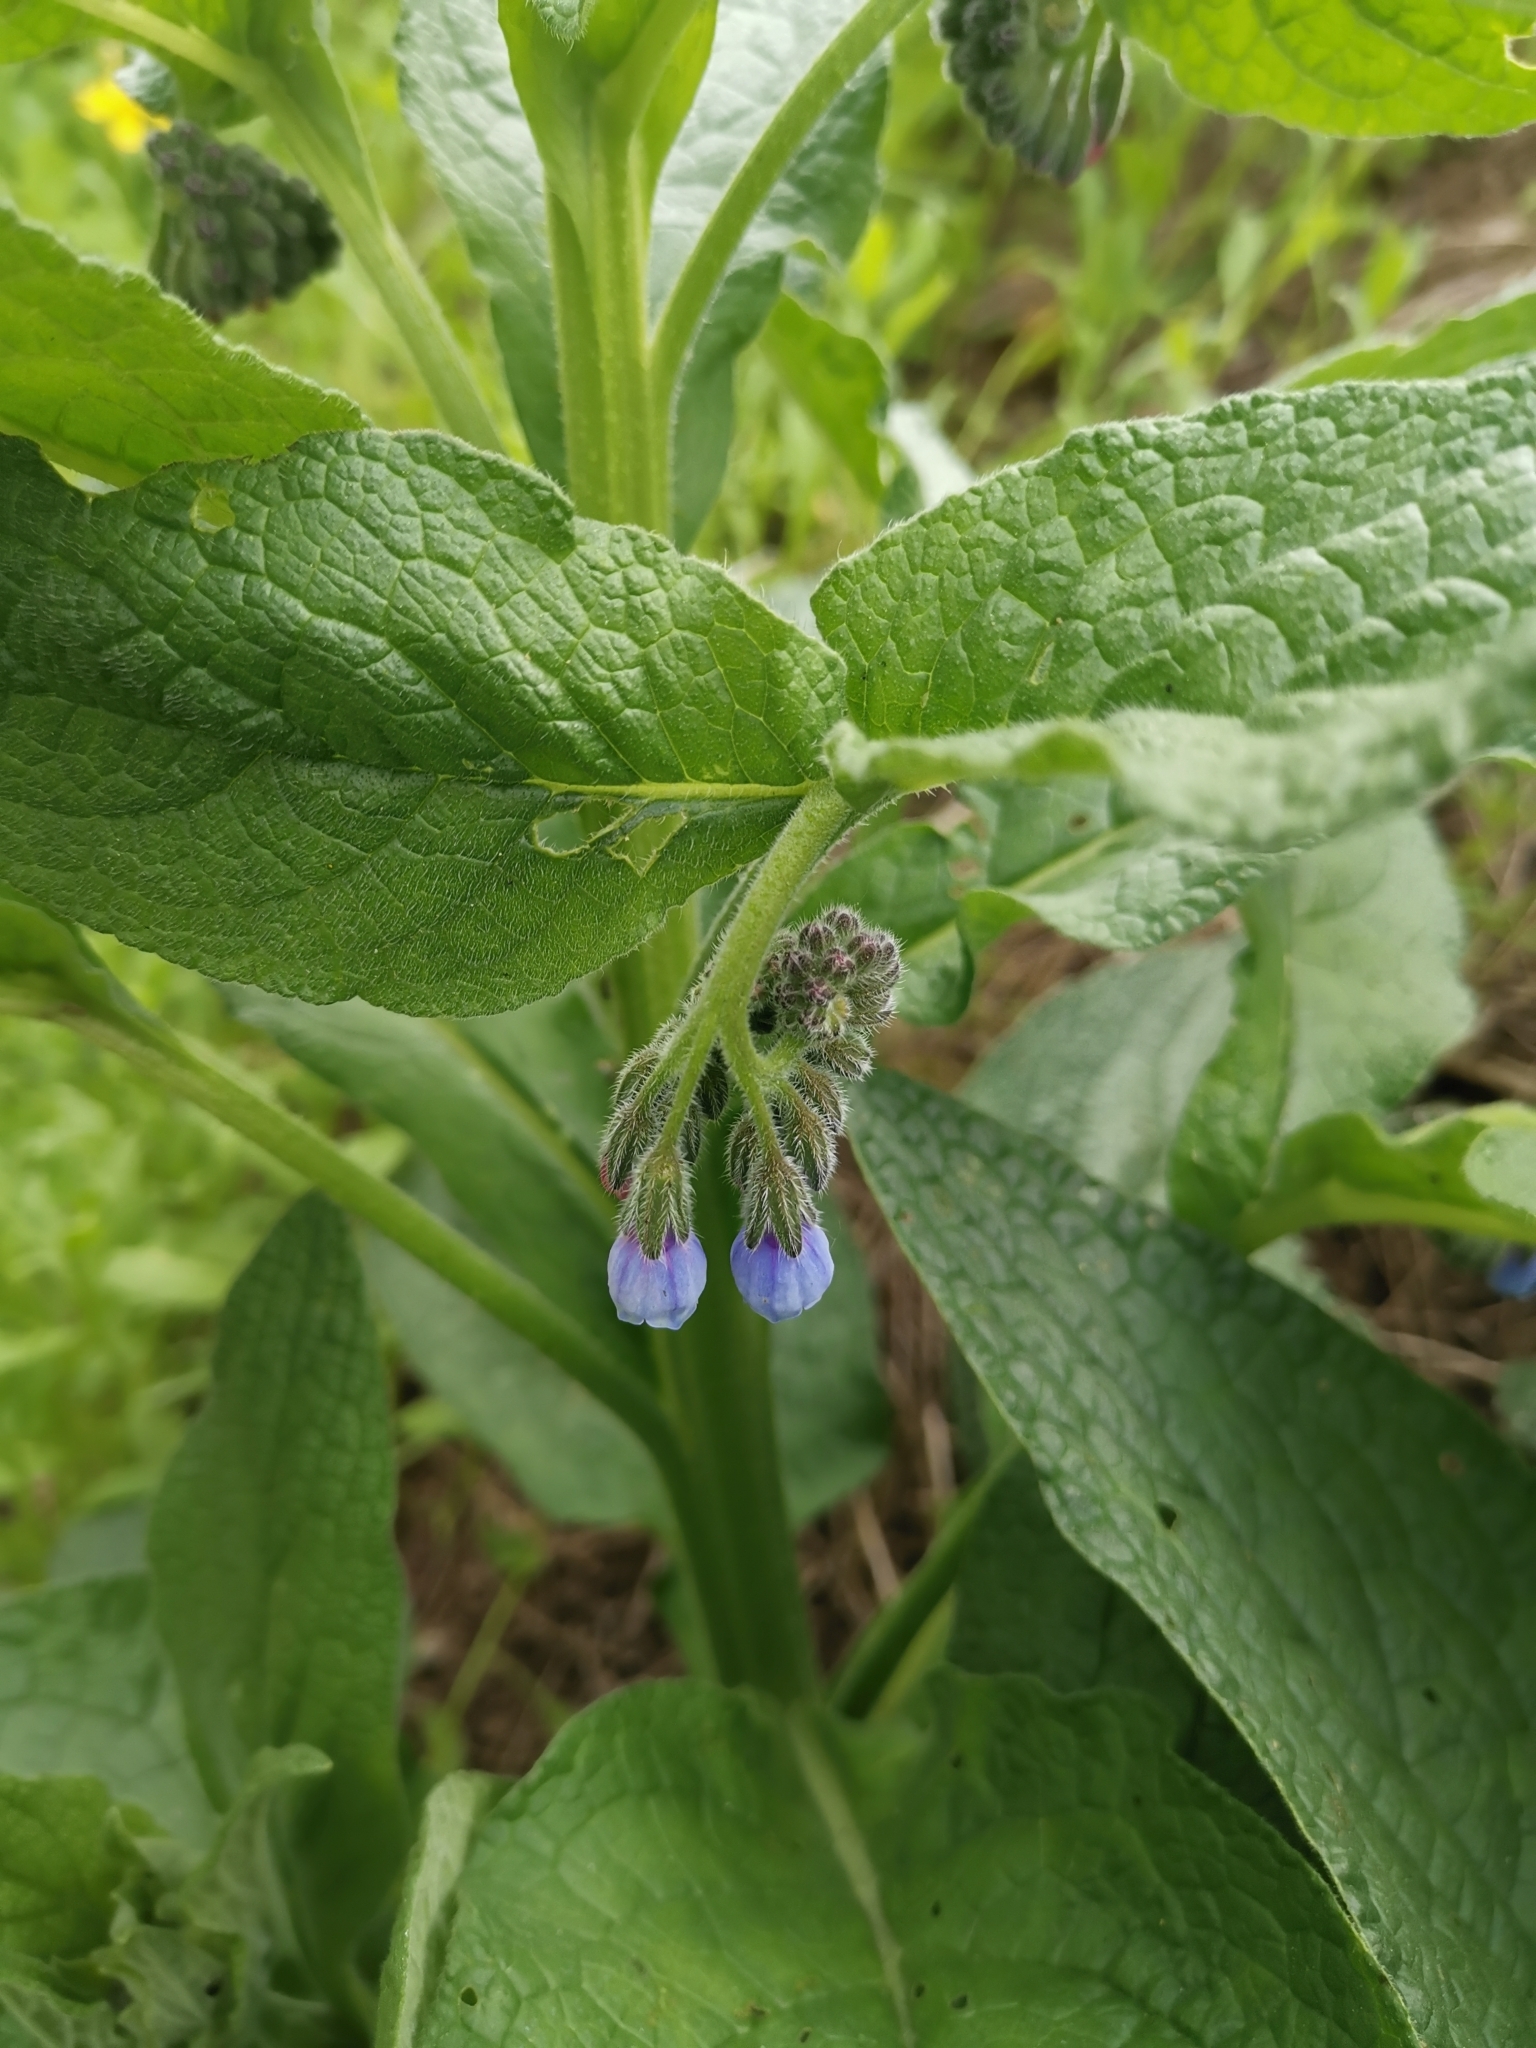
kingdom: Plantae
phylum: Tracheophyta
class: Magnoliopsida
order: Boraginales
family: Boraginaceae
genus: Symphytum
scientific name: Symphytum caucasicum
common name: Caucasian comfrey
